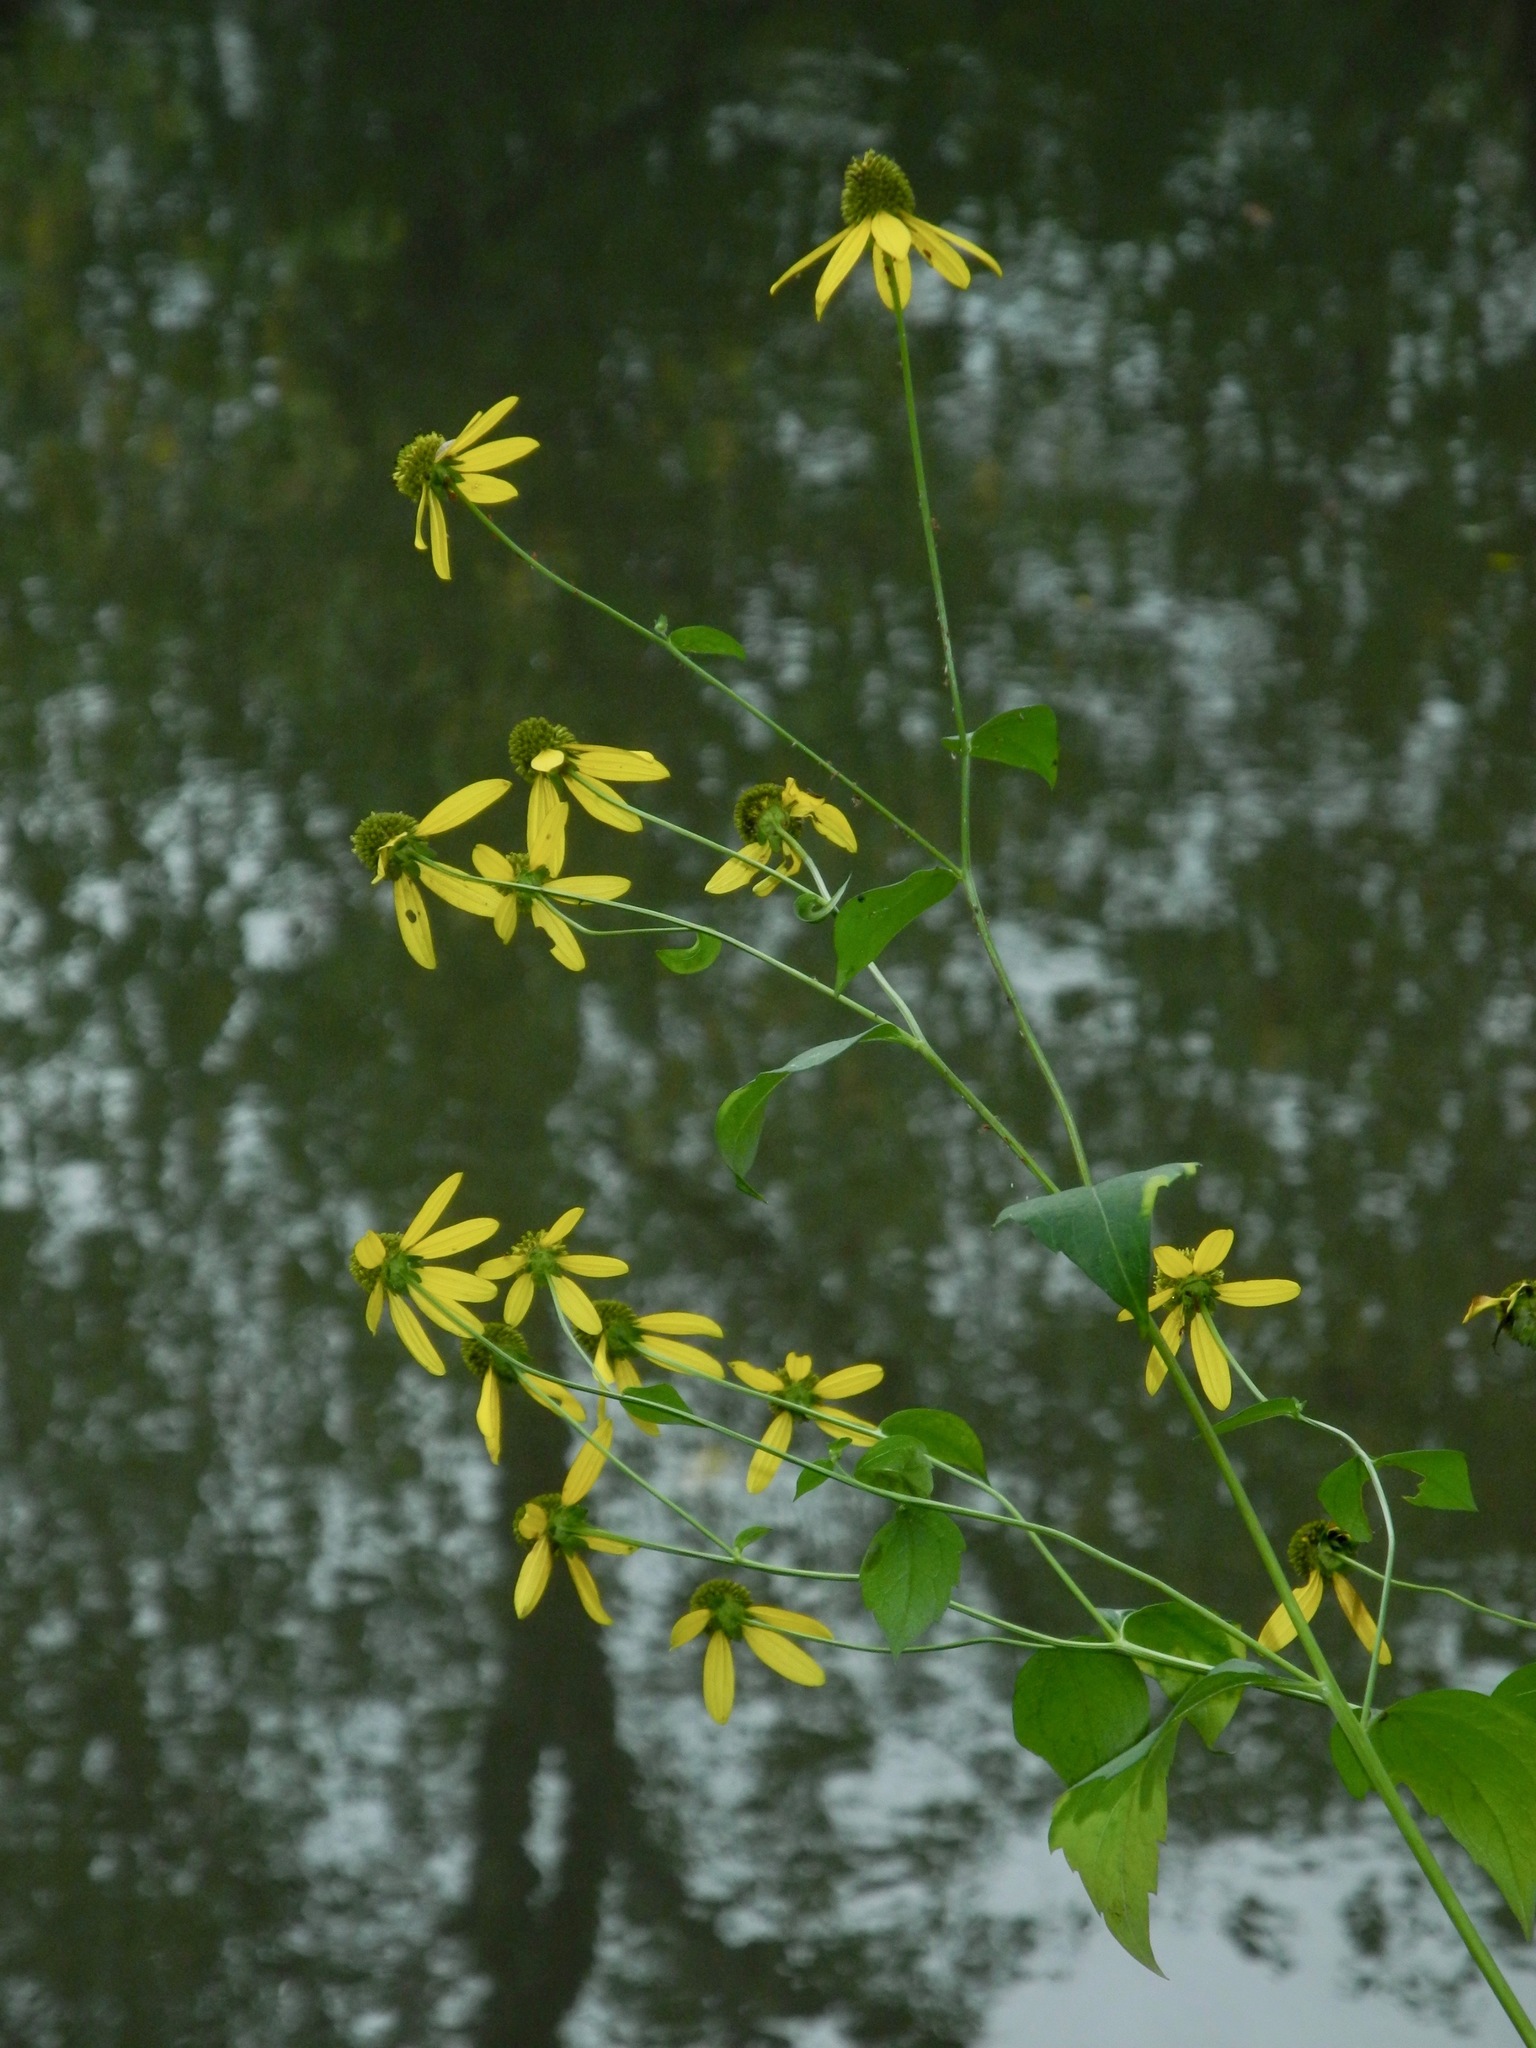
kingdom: Plantae
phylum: Tracheophyta
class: Magnoliopsida
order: Asterales
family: Asteraceae
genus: Rudbeckia
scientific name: Rudbeckia laciniata
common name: Coneflower
